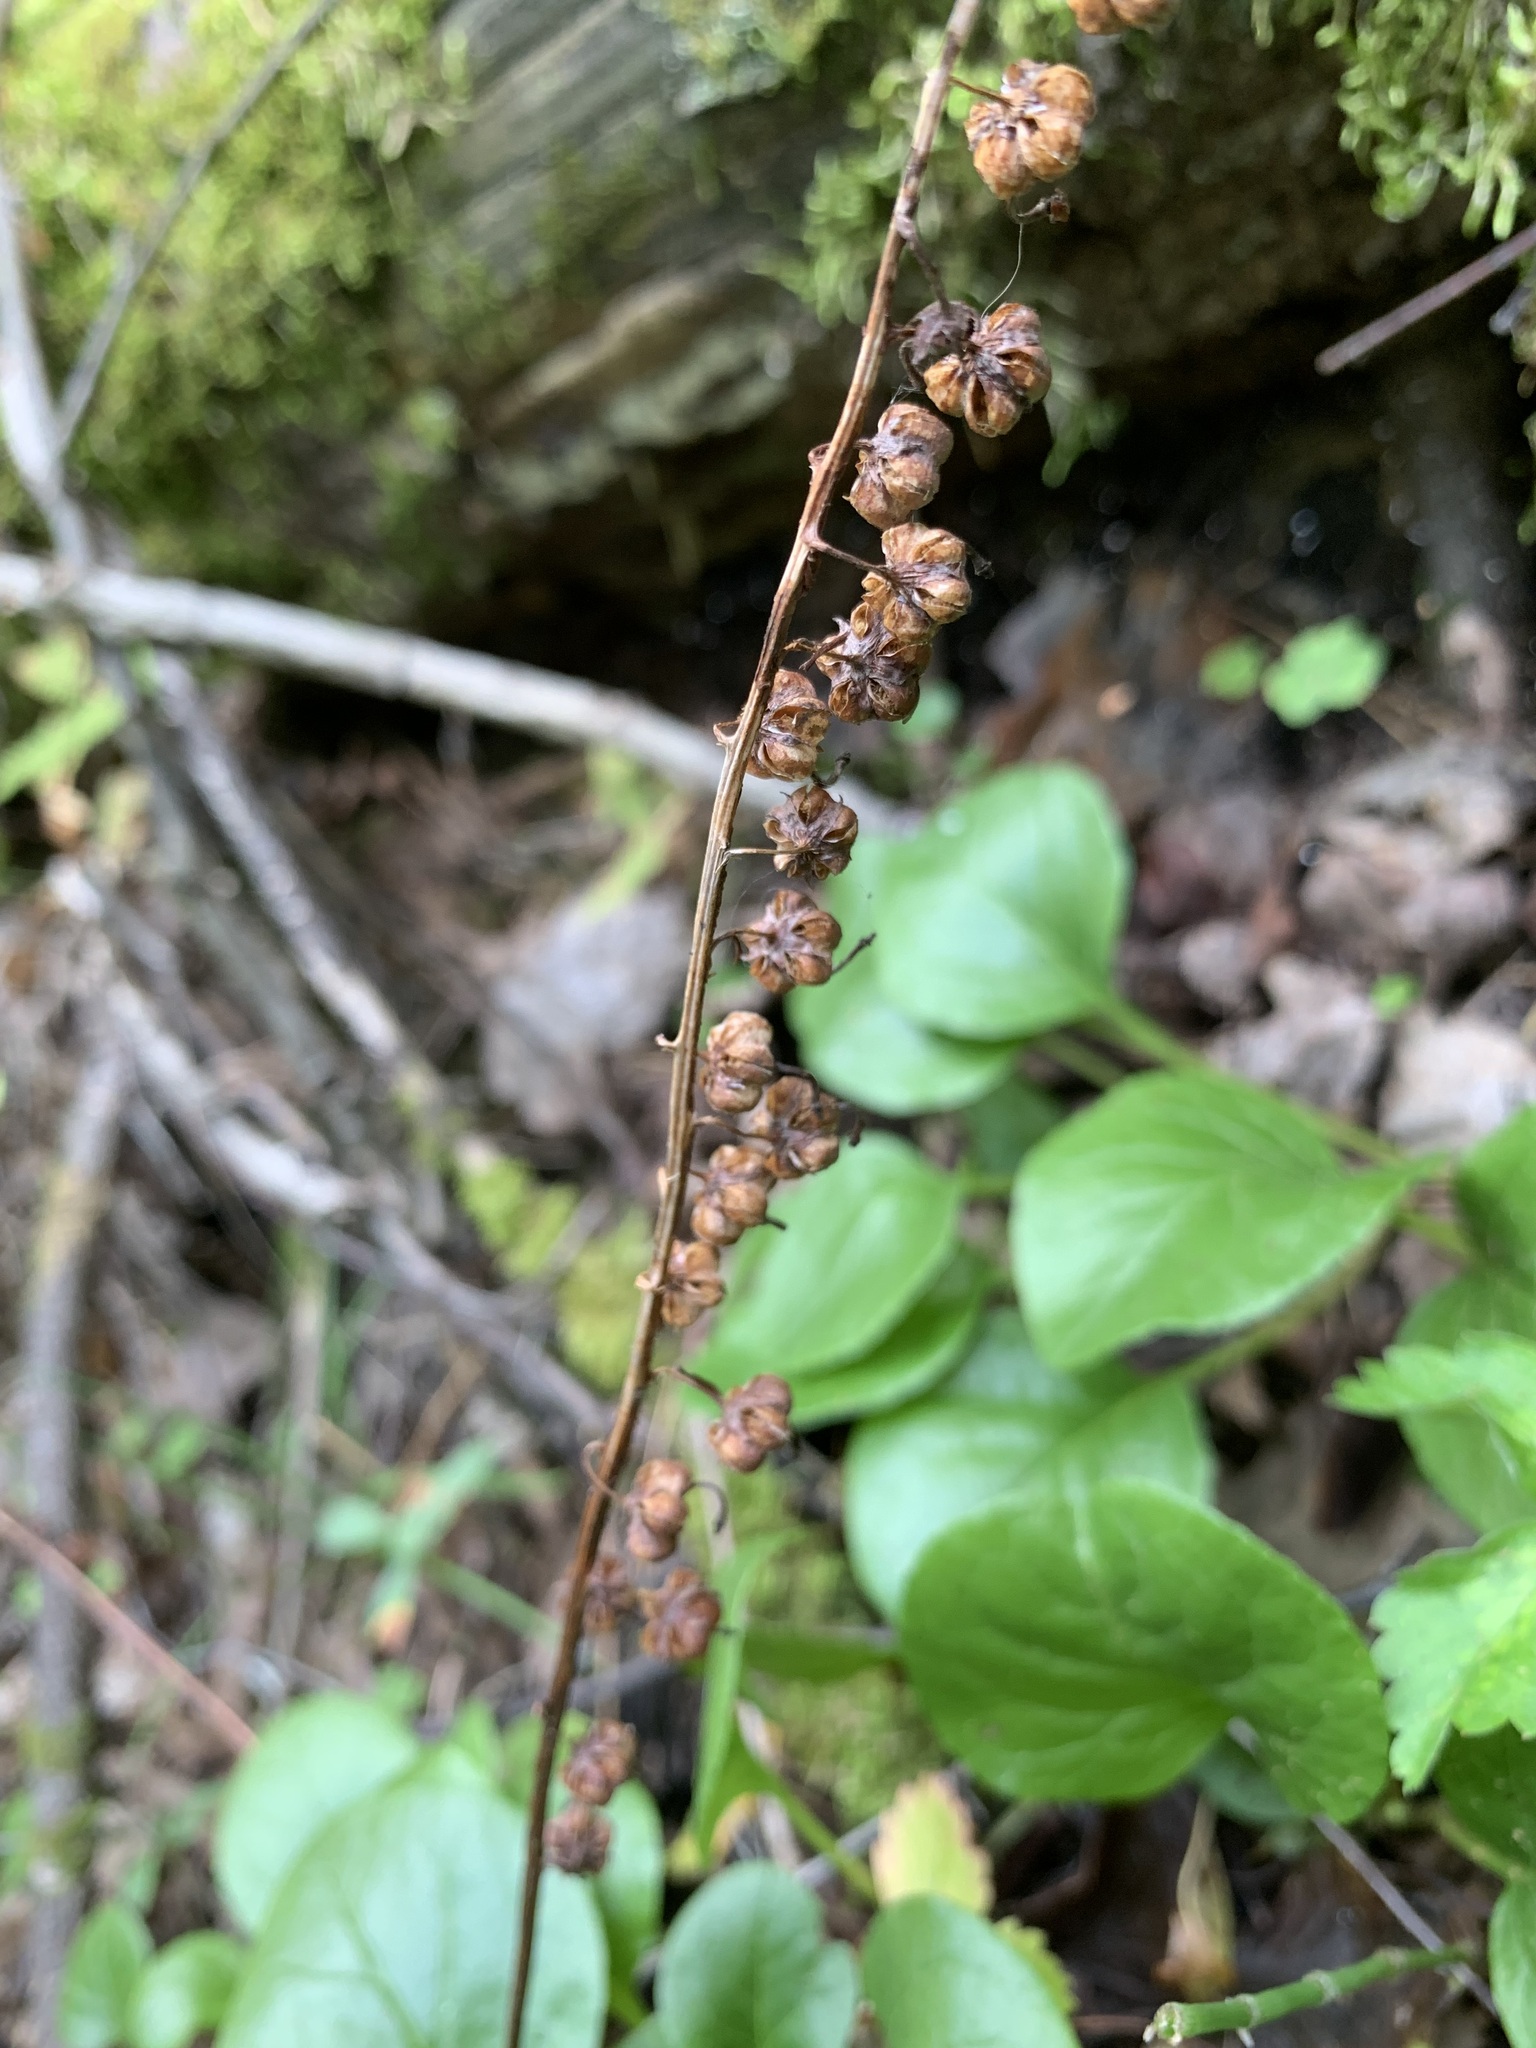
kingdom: Plantae
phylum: Tracheophyta
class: Magnoliopsida
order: Ericales
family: Ericaceae
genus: Pyrola
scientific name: Pyrola rotundifolia
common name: Round-leaved wintergreen
